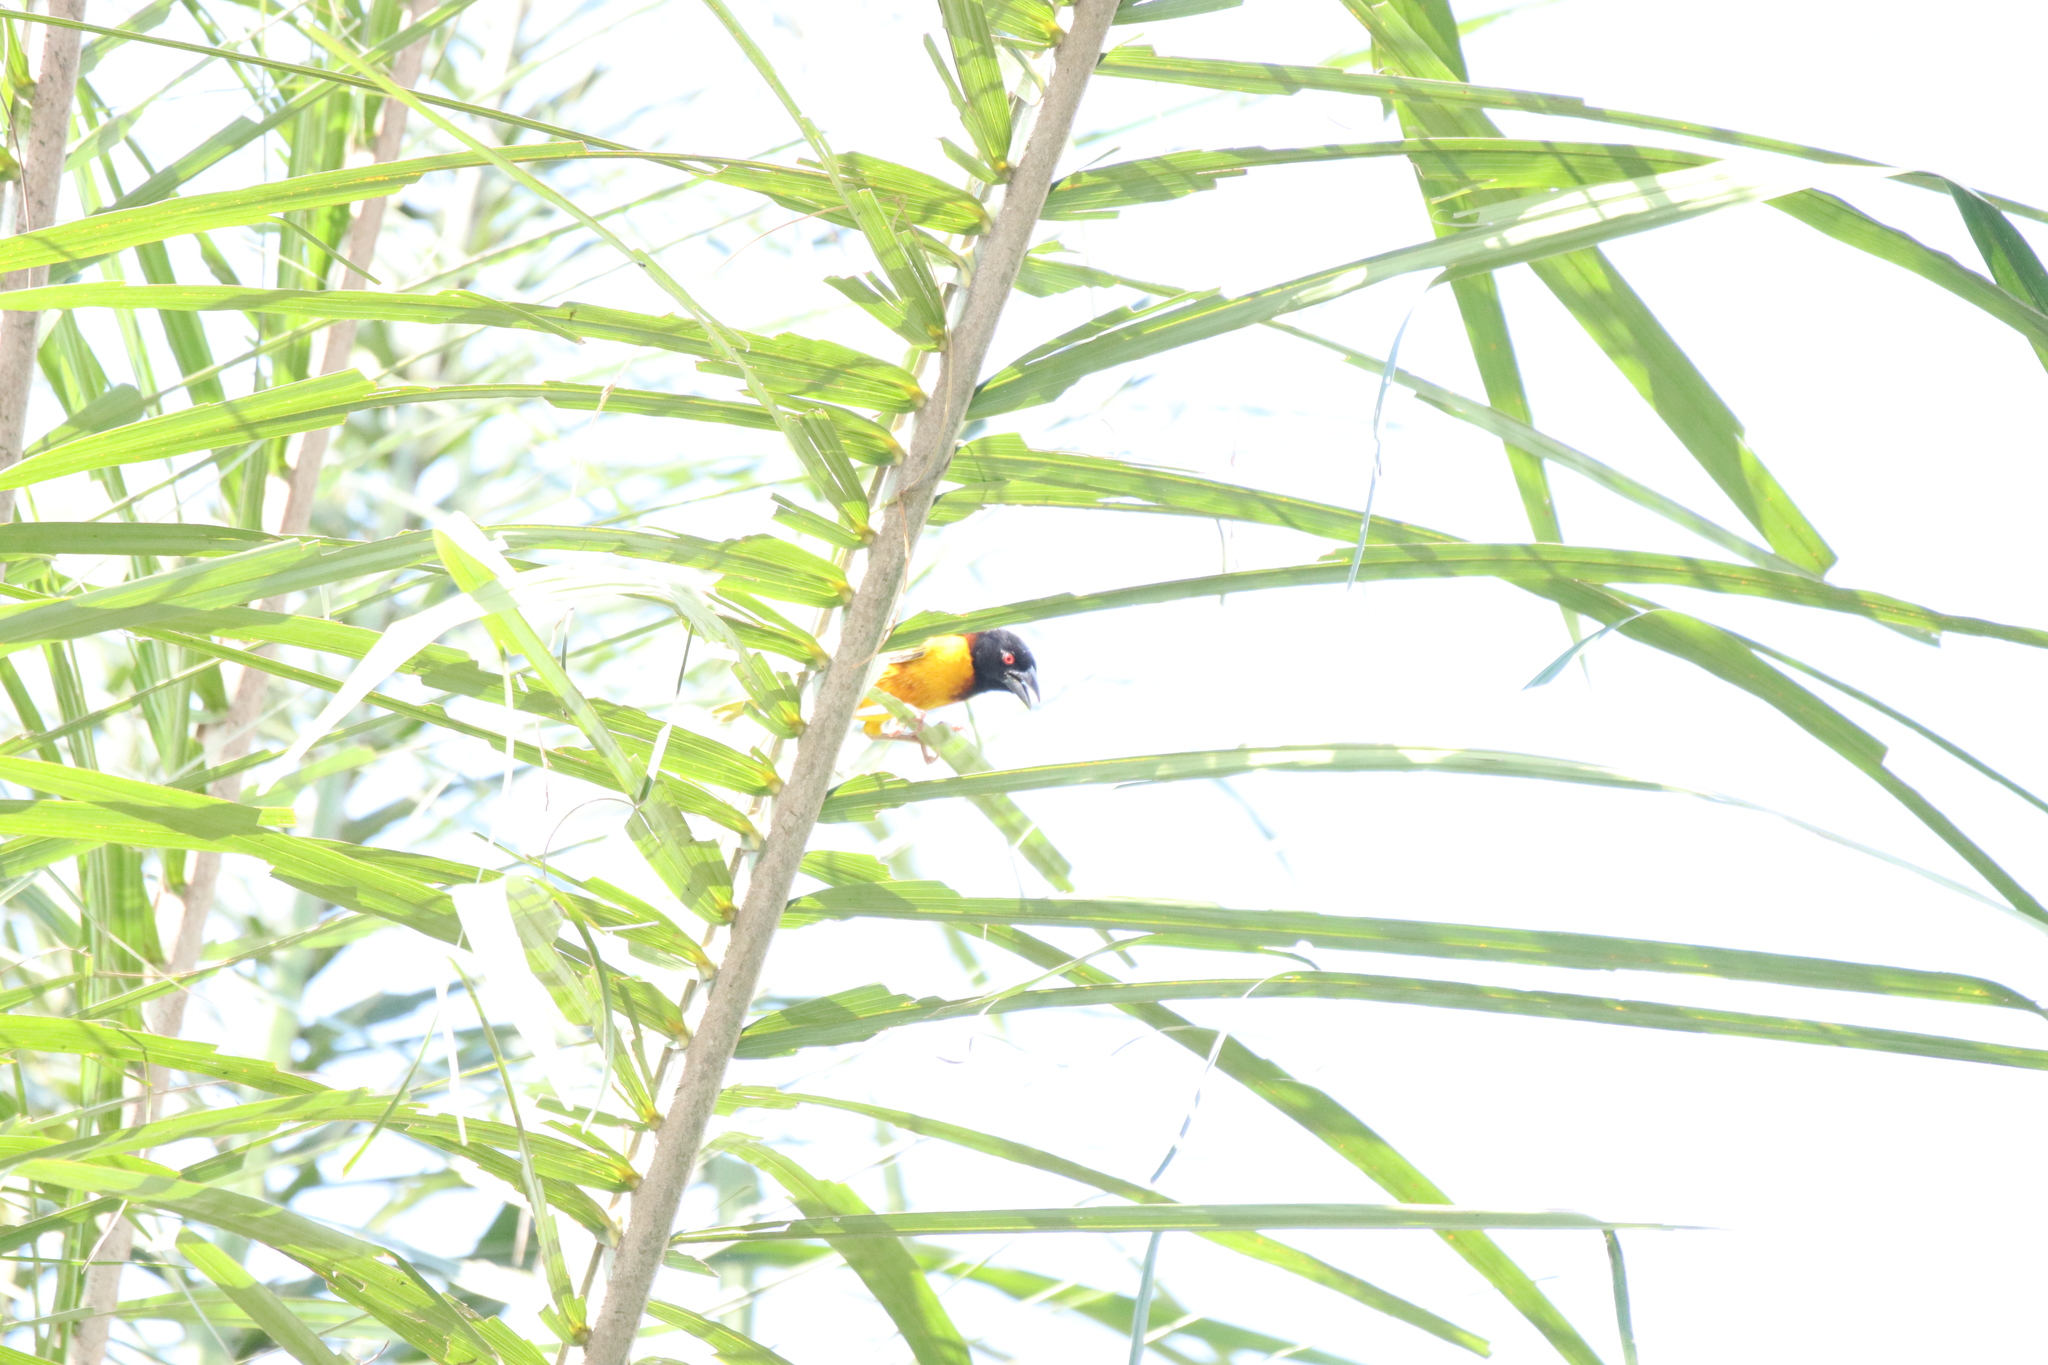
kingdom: Animalia
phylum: Chordata
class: Aves
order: Passeriformes
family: Ploceidae
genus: Ploceus
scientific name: Ploceus cucullatus
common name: Village weaver
